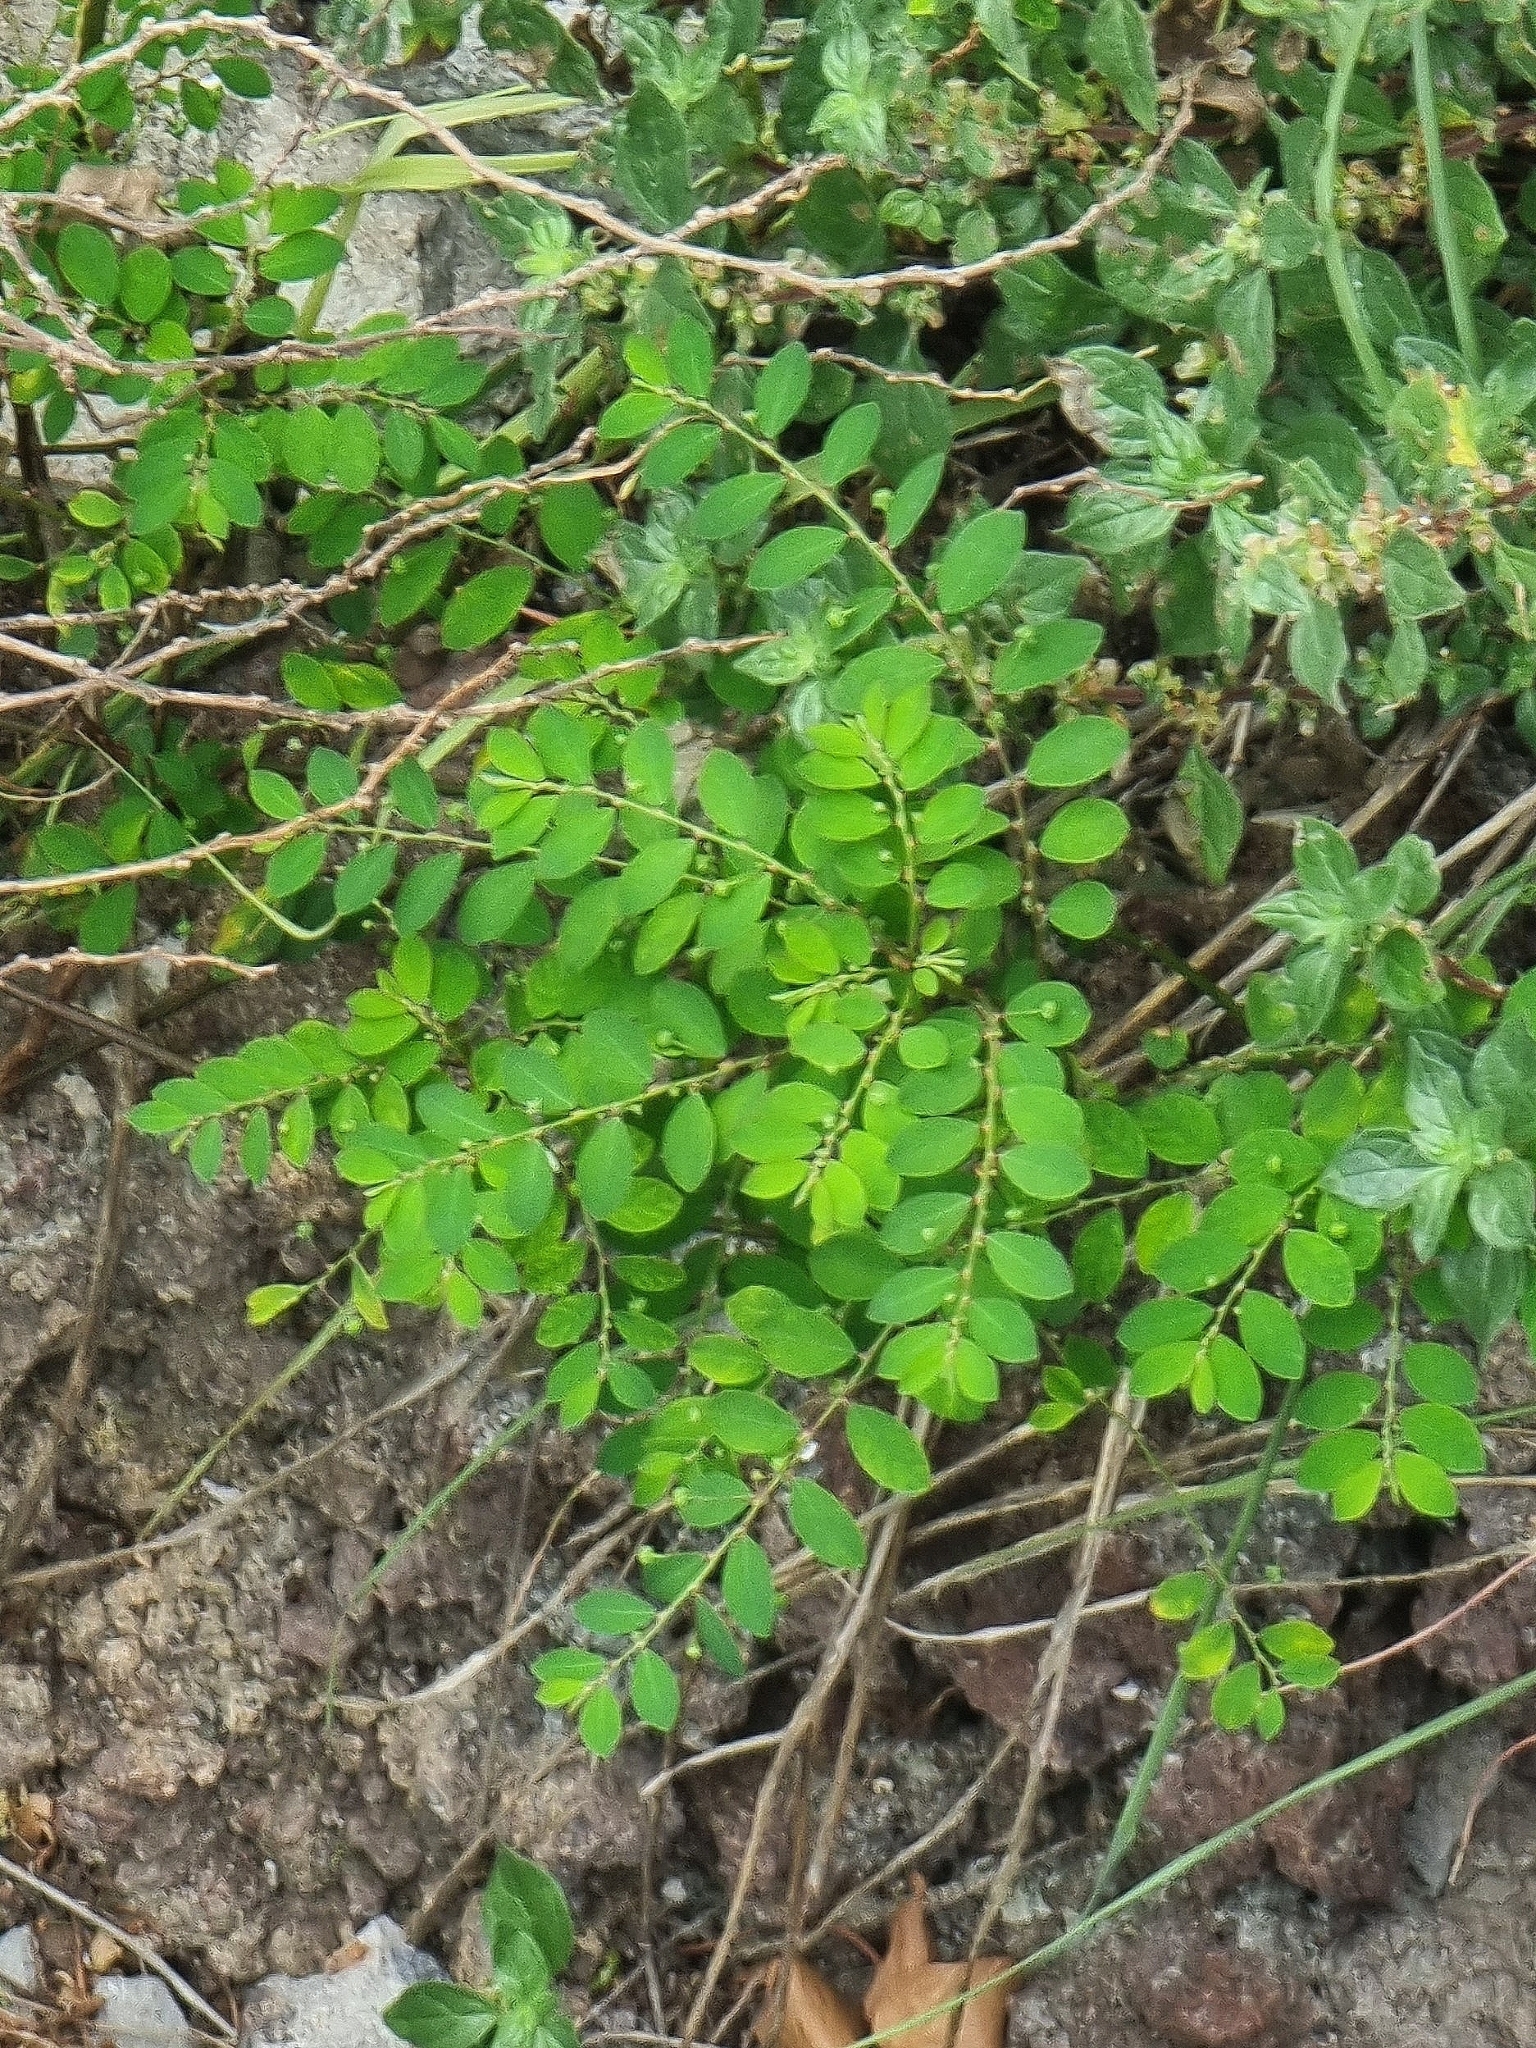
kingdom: Plantae
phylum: Tracheophyta
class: Magnoliopsida
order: Malpighiales
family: Phyllanthaceae
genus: Phyllanthus
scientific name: Phyllanthus tenellus
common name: Mascarene island leaf-flower
